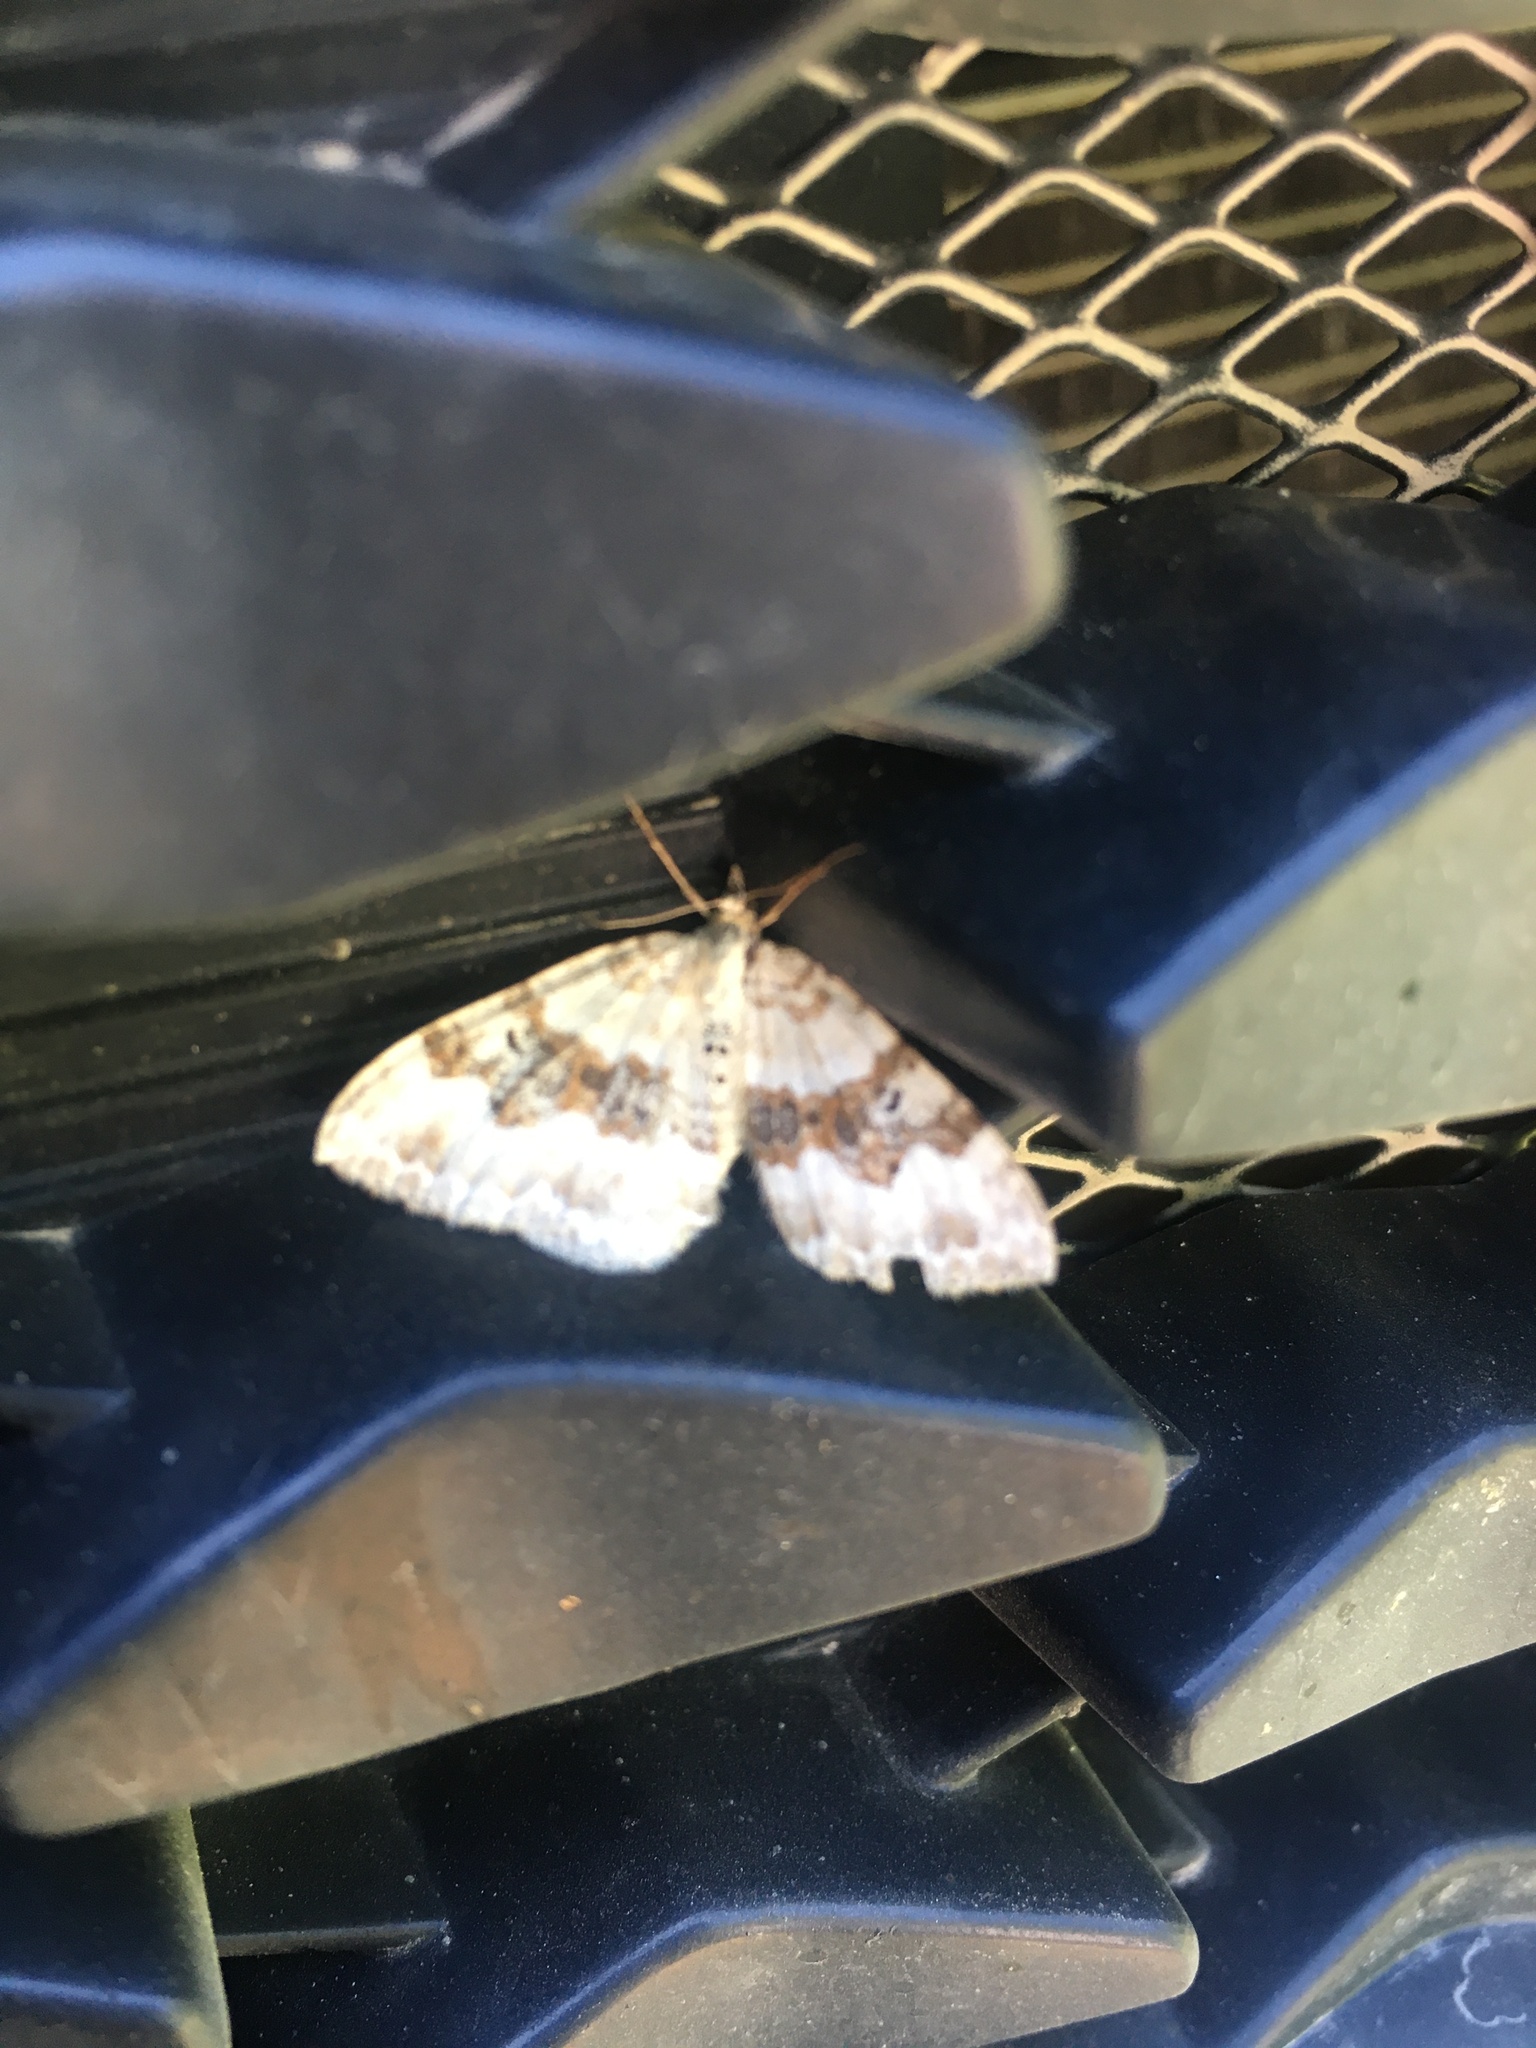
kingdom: Animalia
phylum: Arthropoda
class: Insecta
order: Lepidoptera
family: Geometridae
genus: Xanthorhoe
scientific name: Xanthorhoe montanata
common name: Silver-ground carpet
